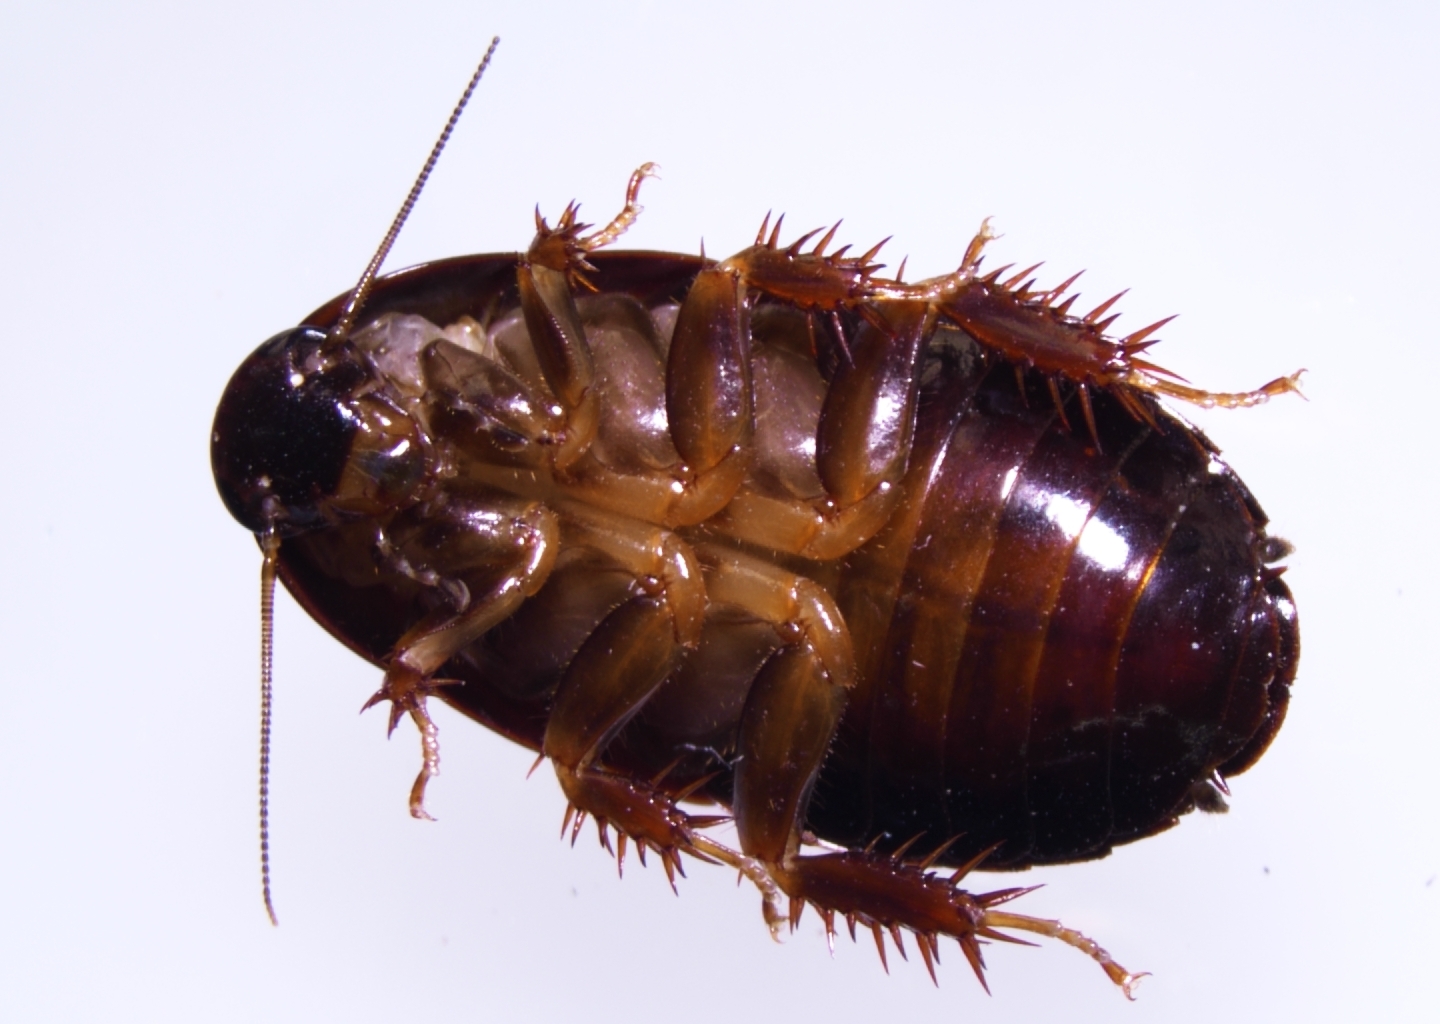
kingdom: Animalia
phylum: Arthropoda
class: Insecta
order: Blattodea
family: Blaberidae
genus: Pycnoscelus
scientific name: Pycnoscelus surinamensis
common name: Surinam cockroach
